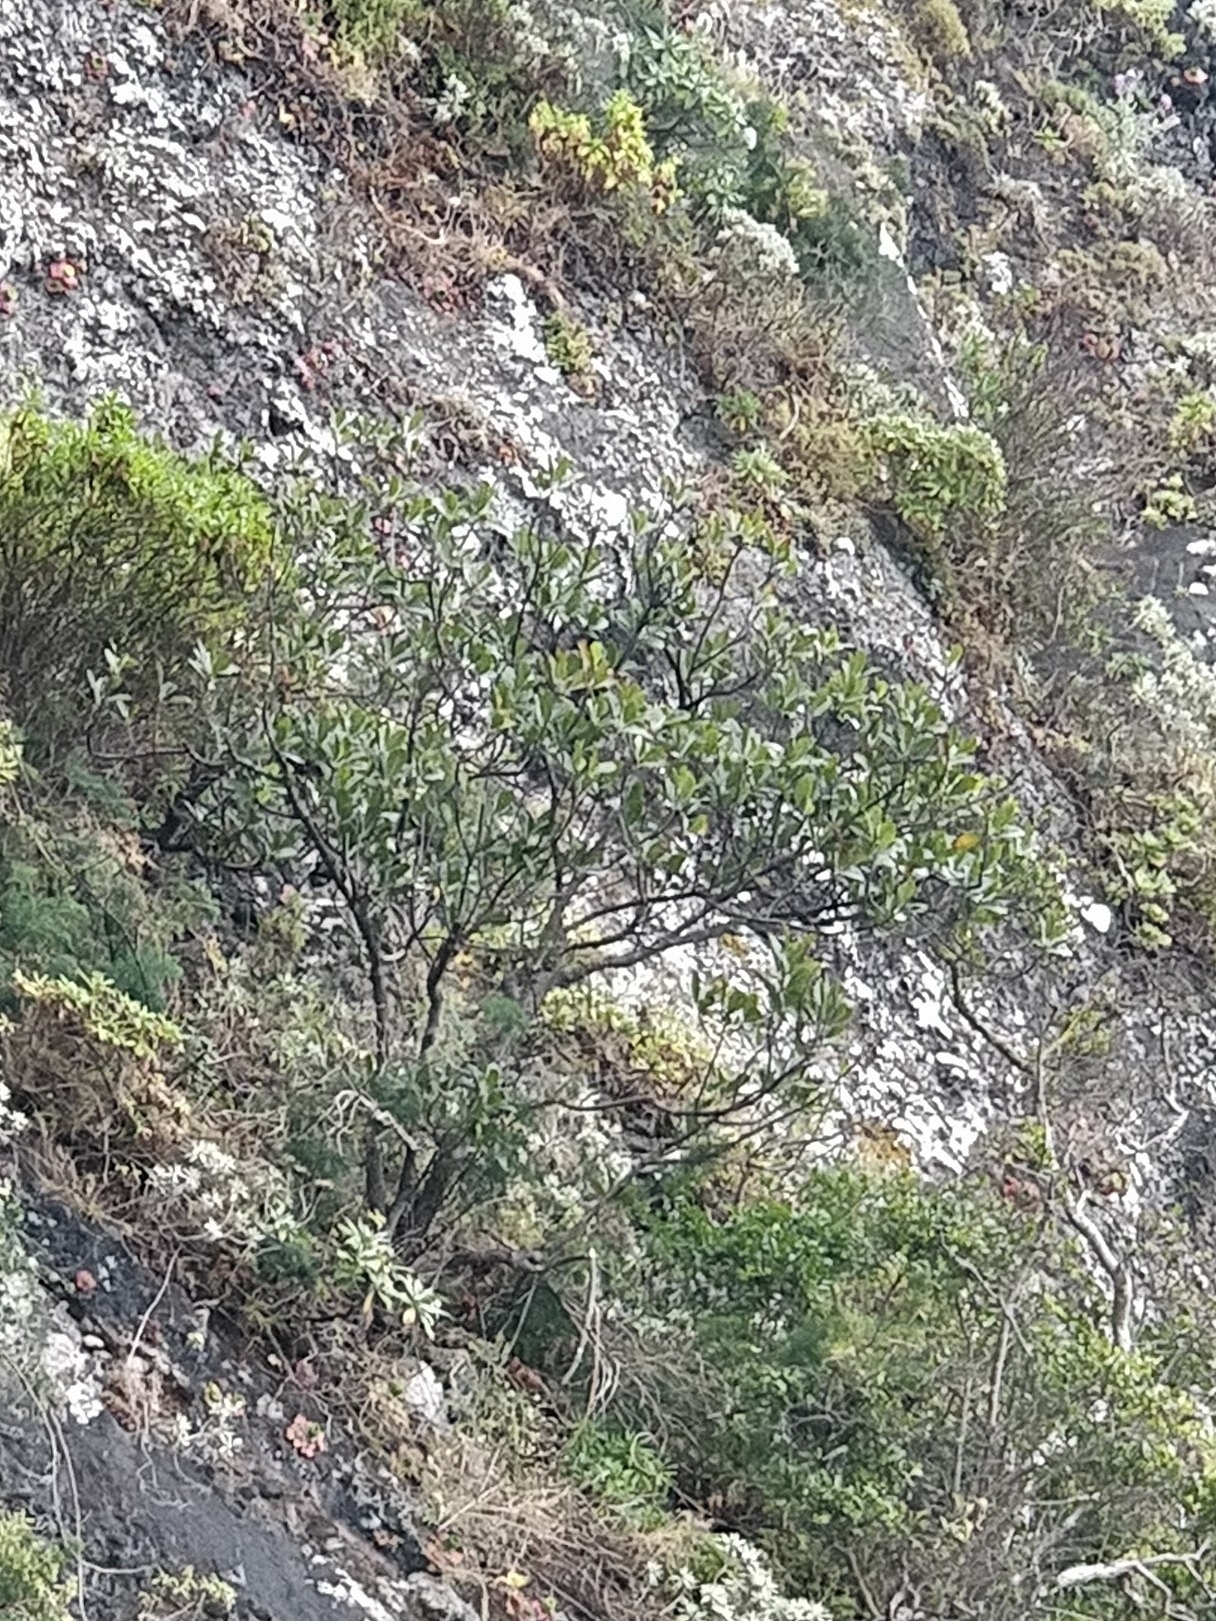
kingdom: Plantae
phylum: Tracheophyta
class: Magnoliopsida
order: Ericales
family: Sapotaceae
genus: Sideroxylon
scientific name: Sideroxylon mirmulans
